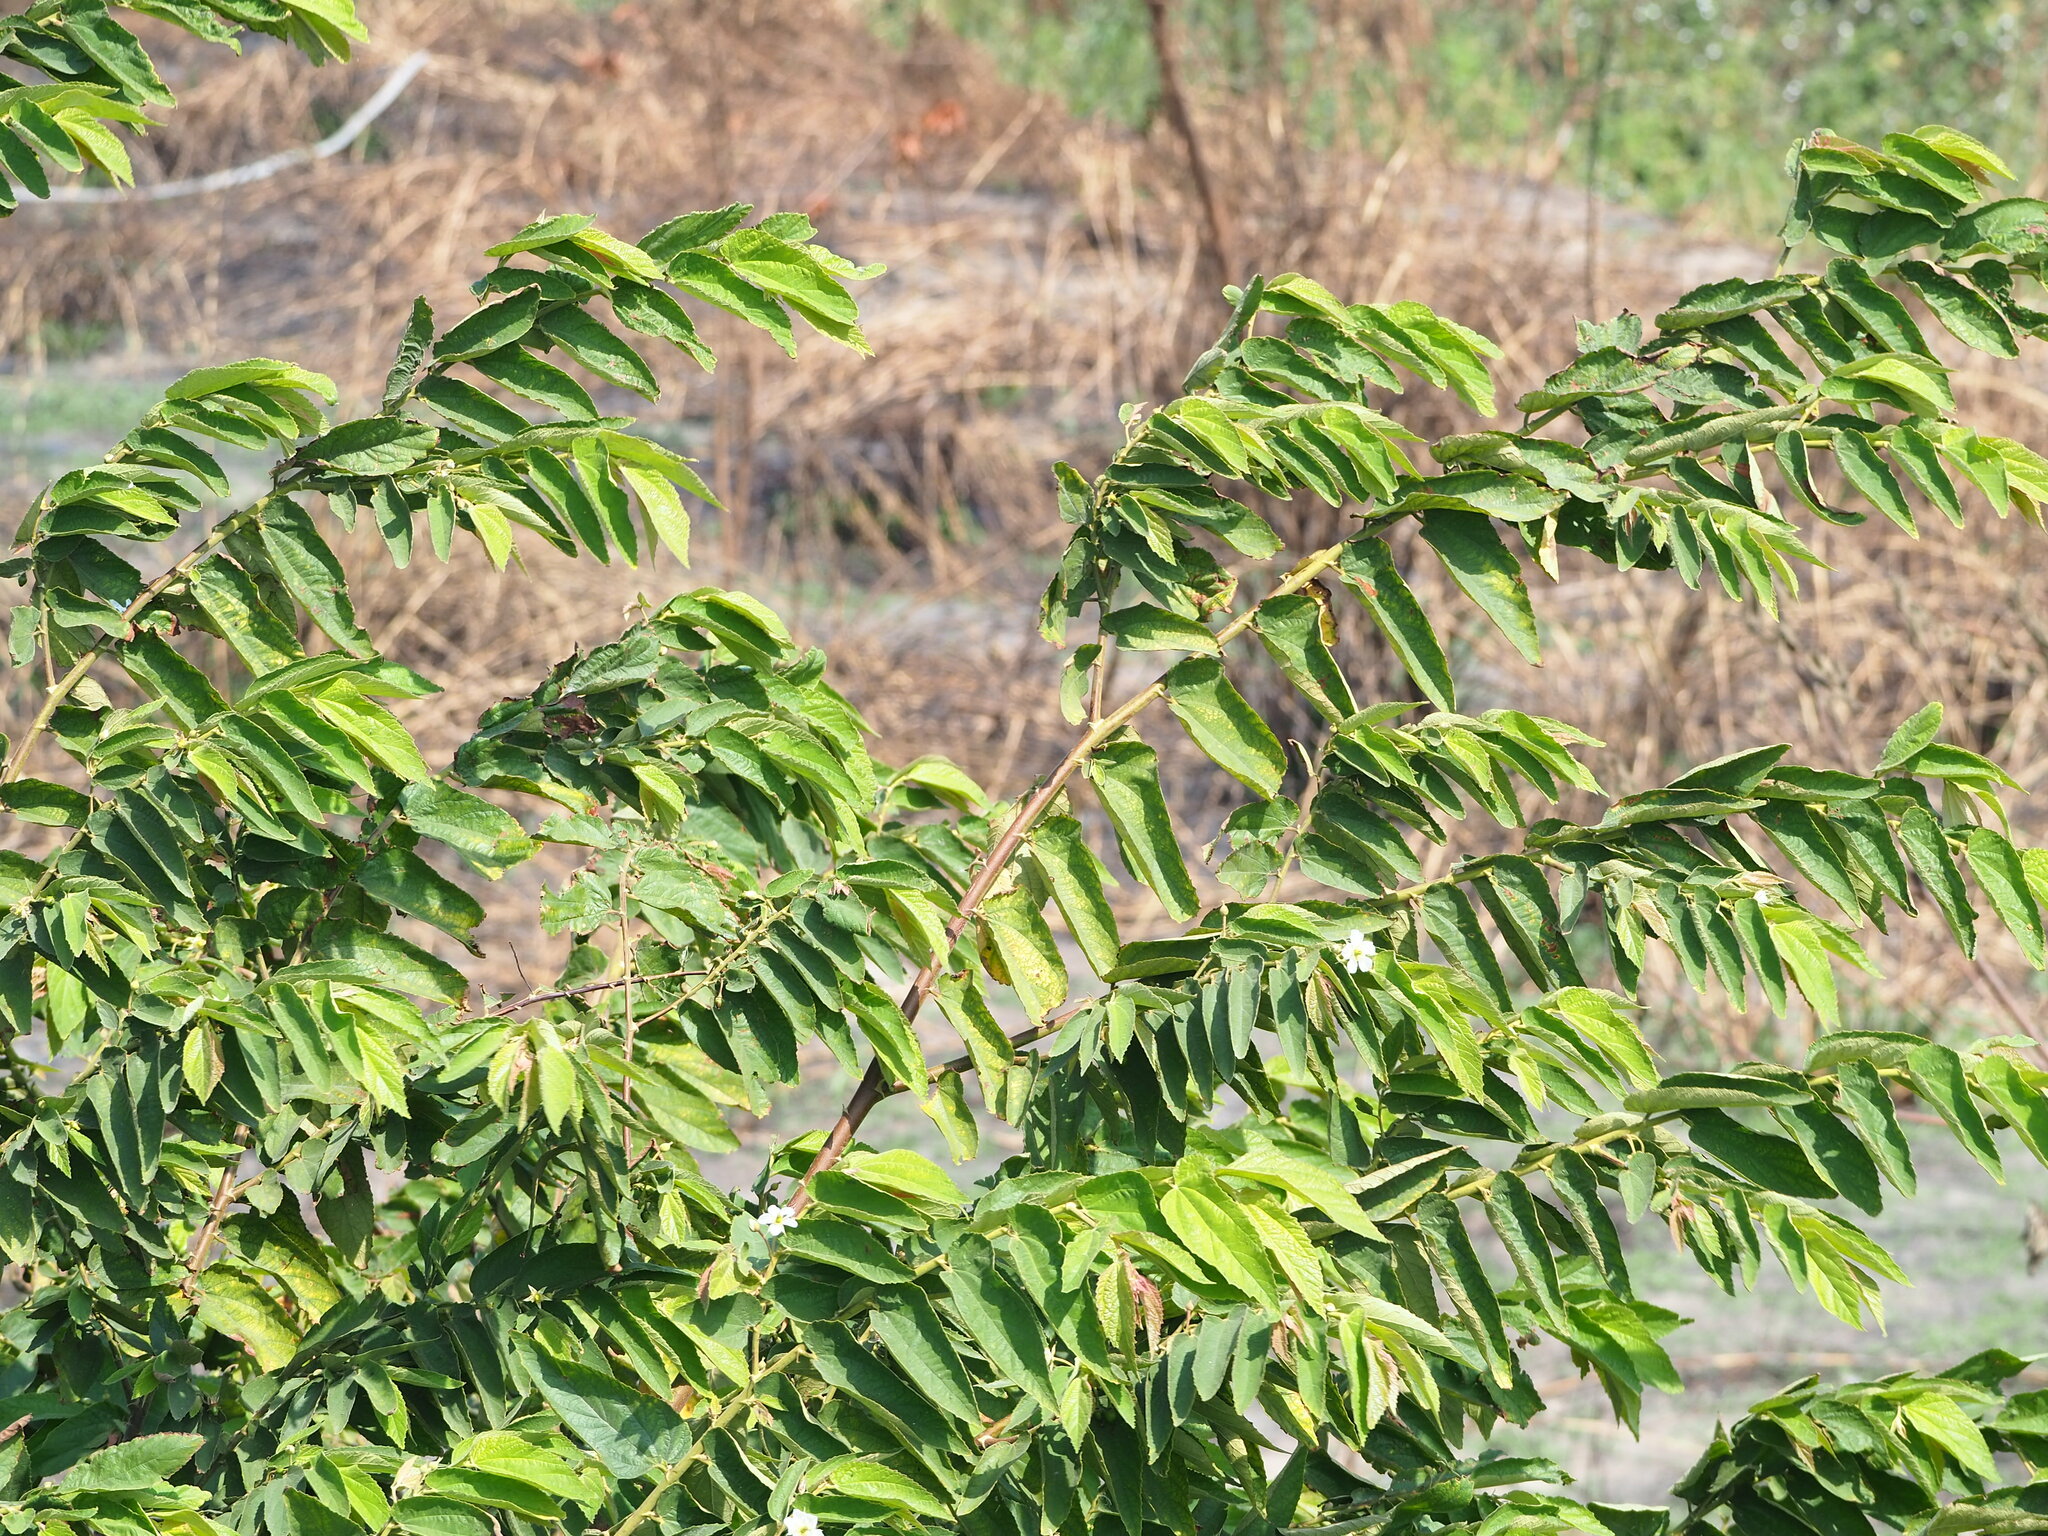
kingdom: Plantae
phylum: Tracheophyta
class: Magnoliopsida
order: Malvales
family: Muntingiaceae
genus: Muntingia
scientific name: Muntingia calabura
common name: Strawberrytree
